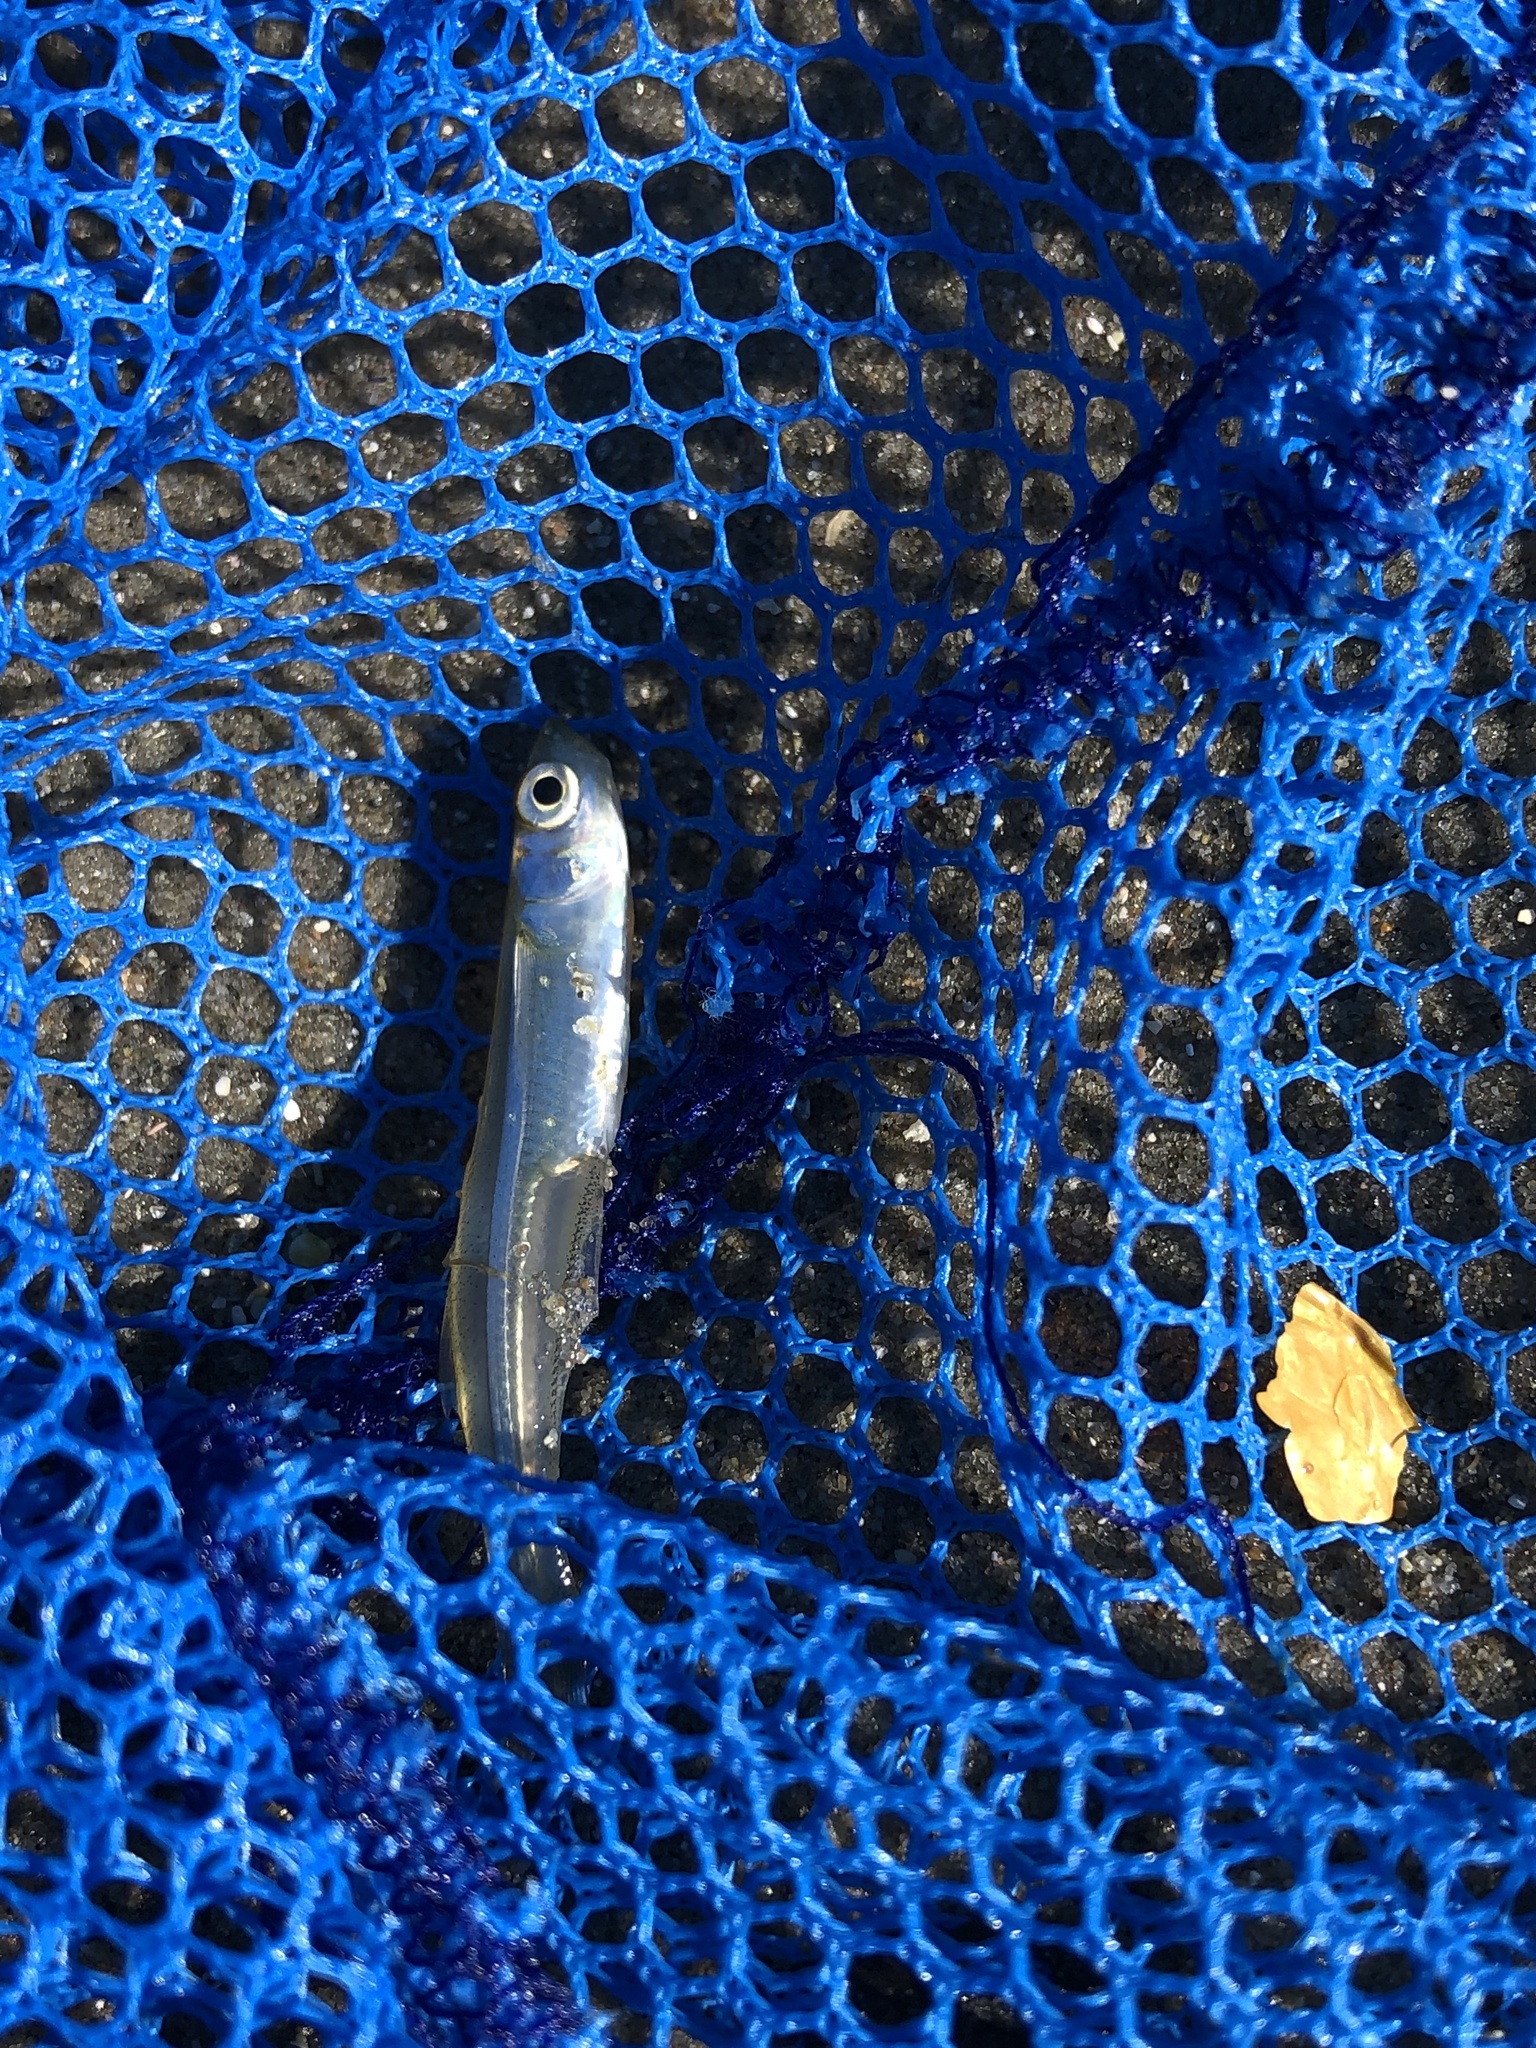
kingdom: Animalia
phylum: Chordata
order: Atheriniformes
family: Atherinopsidae
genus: Menidia
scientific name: Menidia menidia
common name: Atlantic silverside
